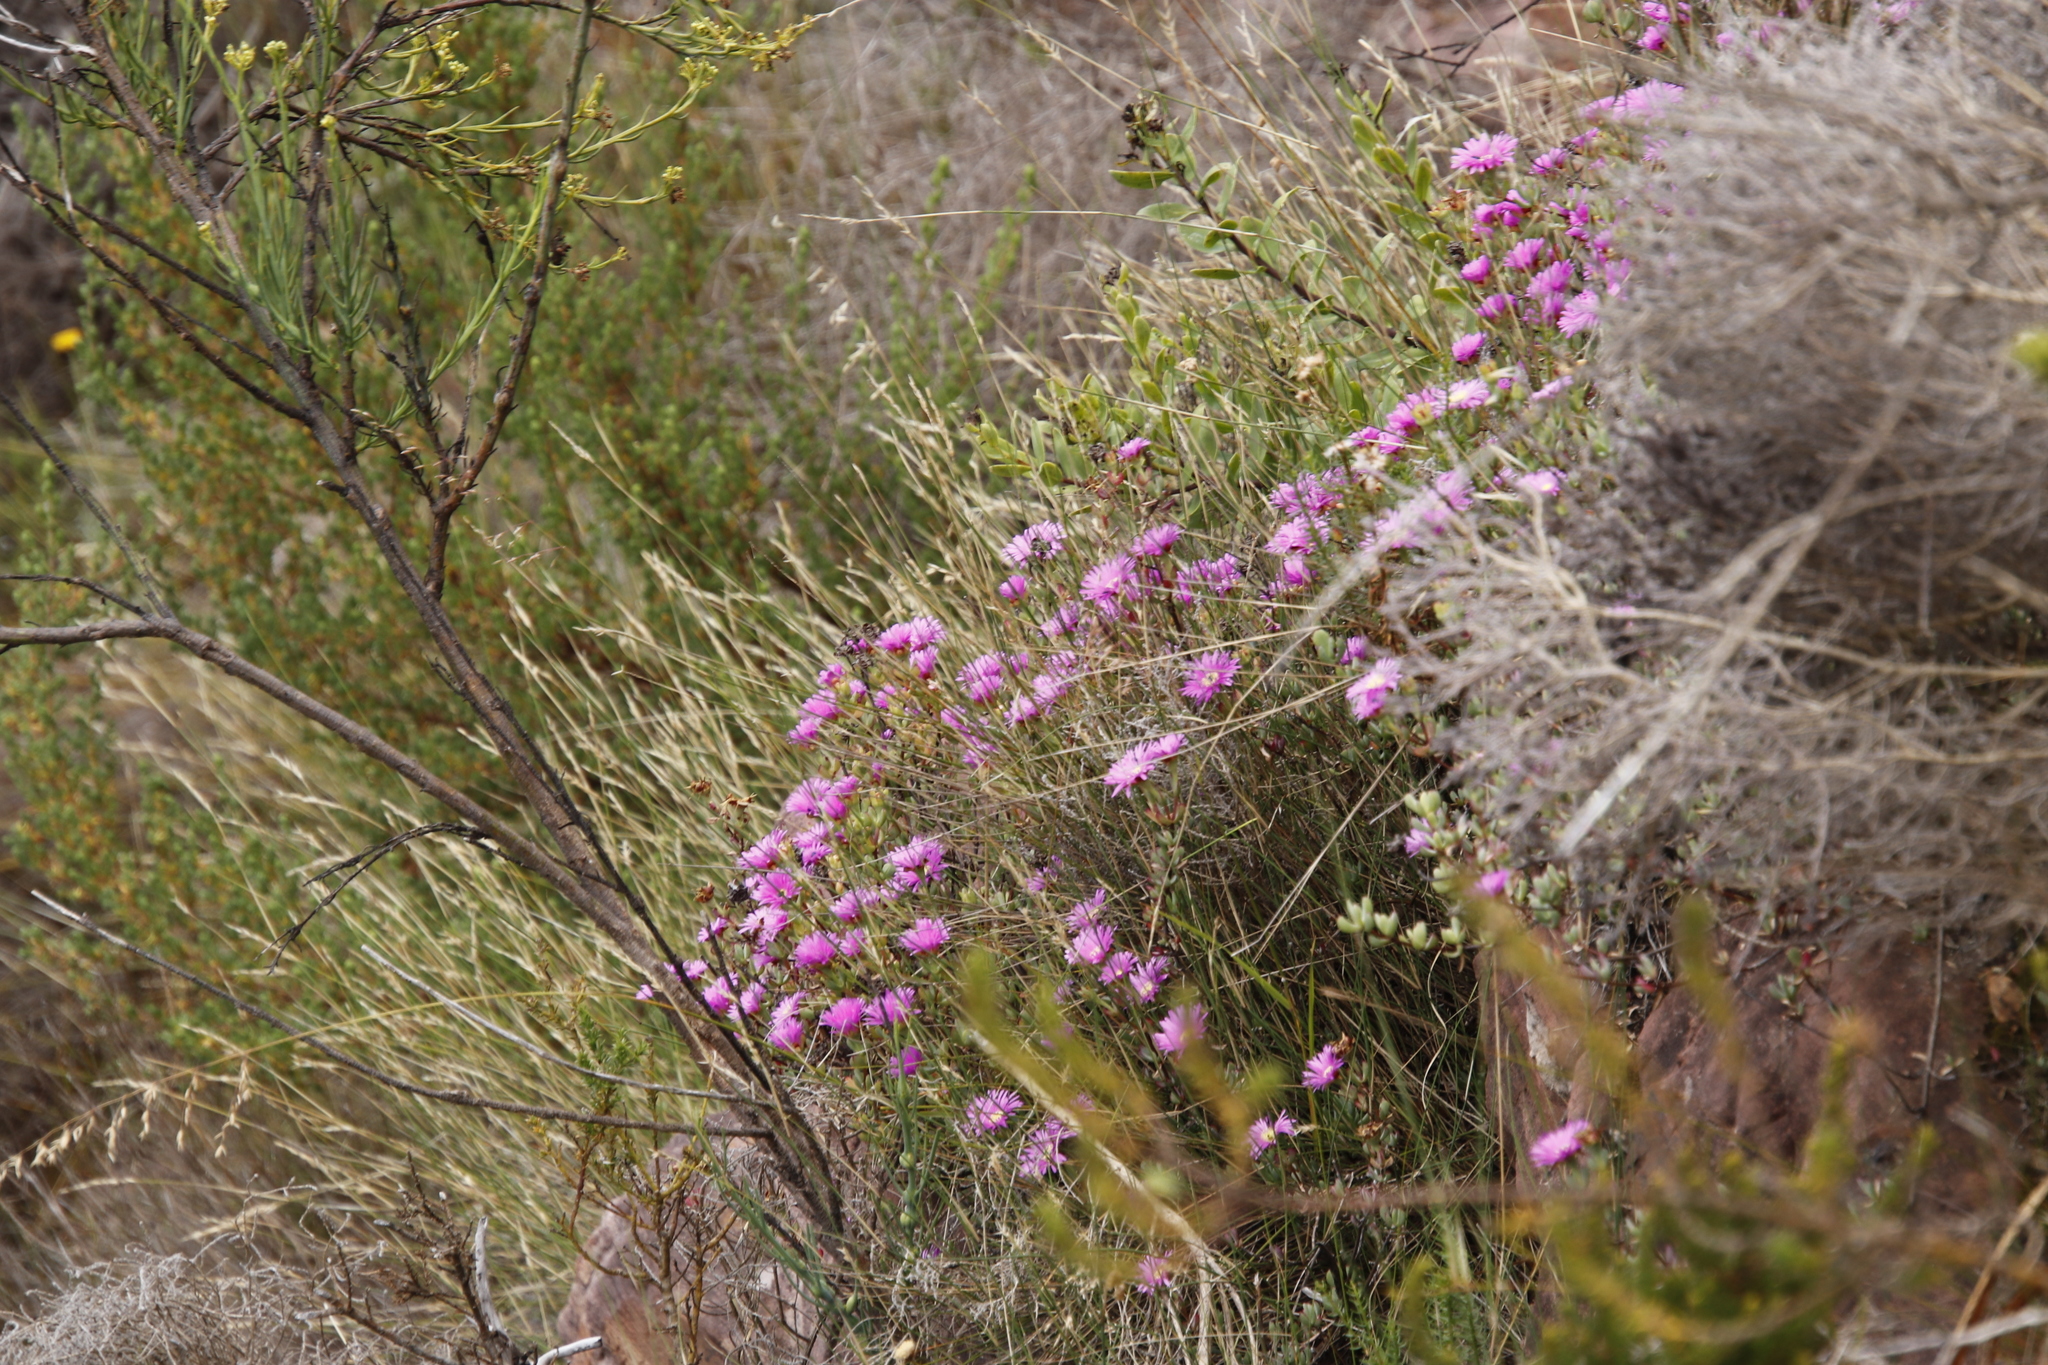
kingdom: Plantae
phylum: Tracheophyta
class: Magnoliopsida
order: Caryophyllales
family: Aizoaceae
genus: Oscularia
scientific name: Oscularia falciformis
